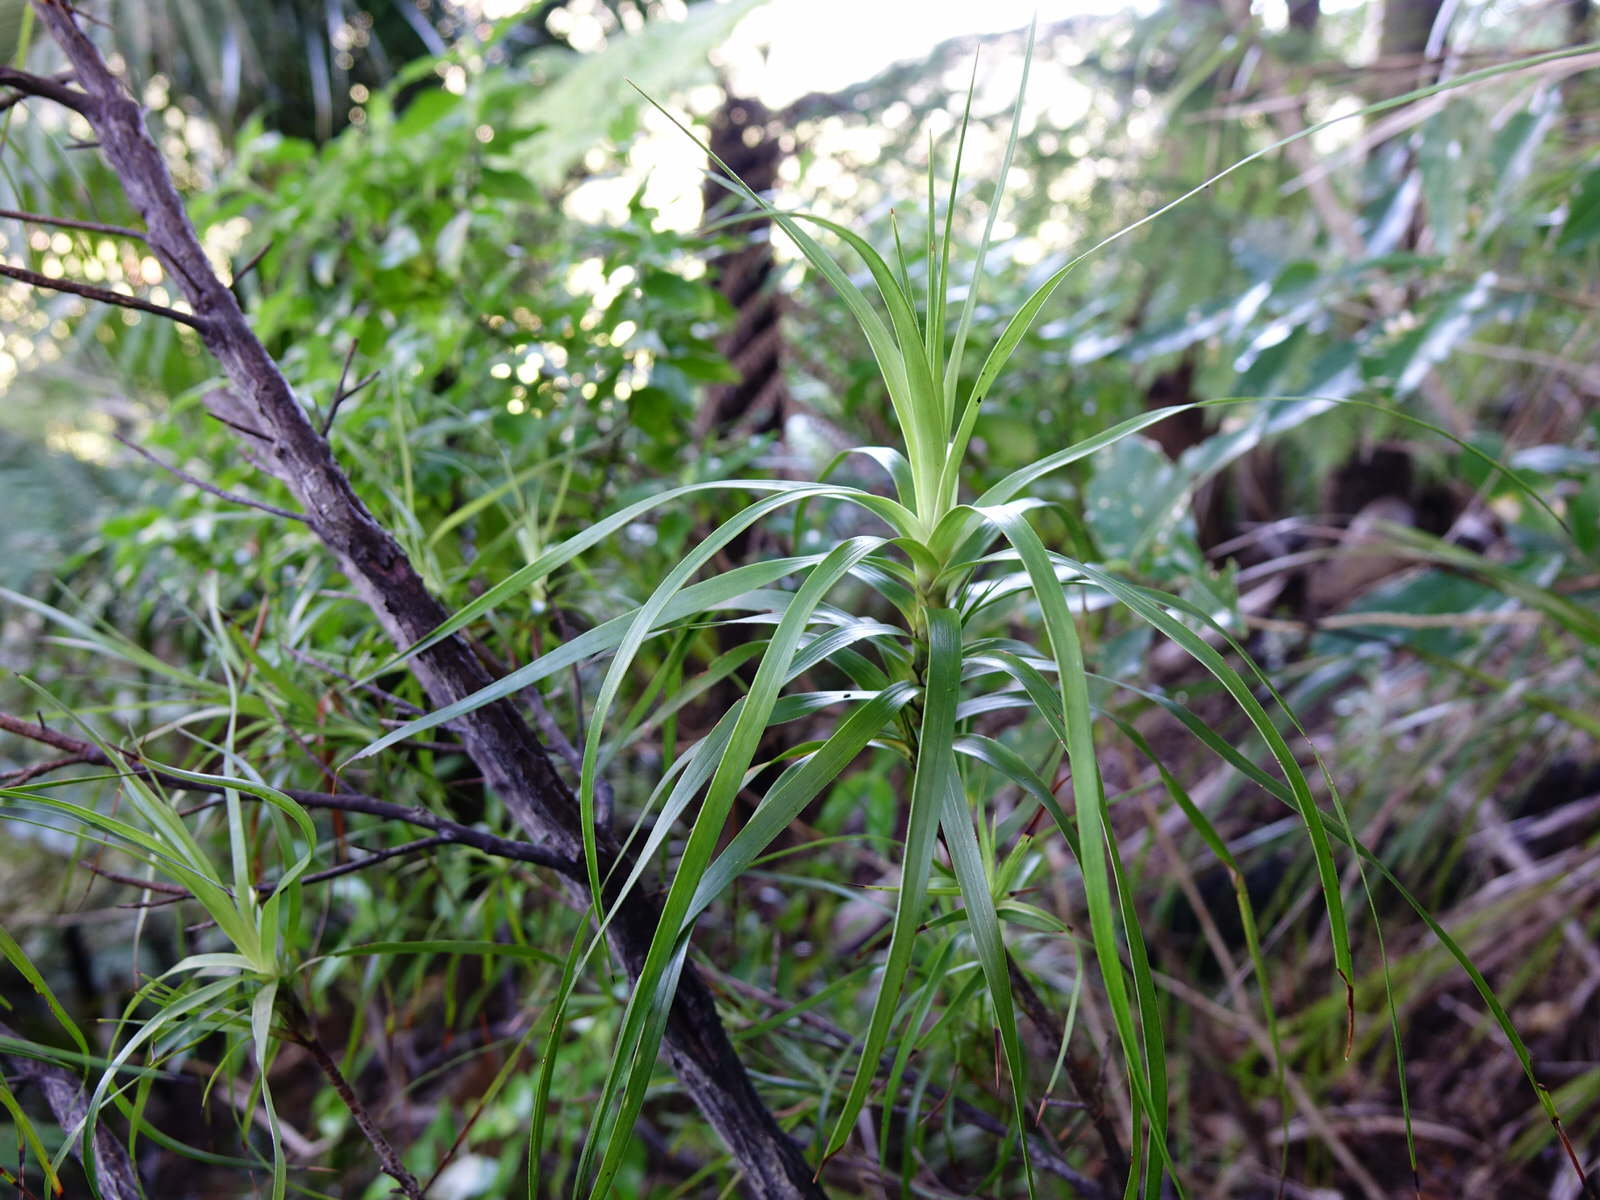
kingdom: Plantae
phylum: Tracheophyta
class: Magnoliopsida
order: Ericales
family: Ericaceae
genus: Dracophyllum
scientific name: Dracophyllum sinclairii
